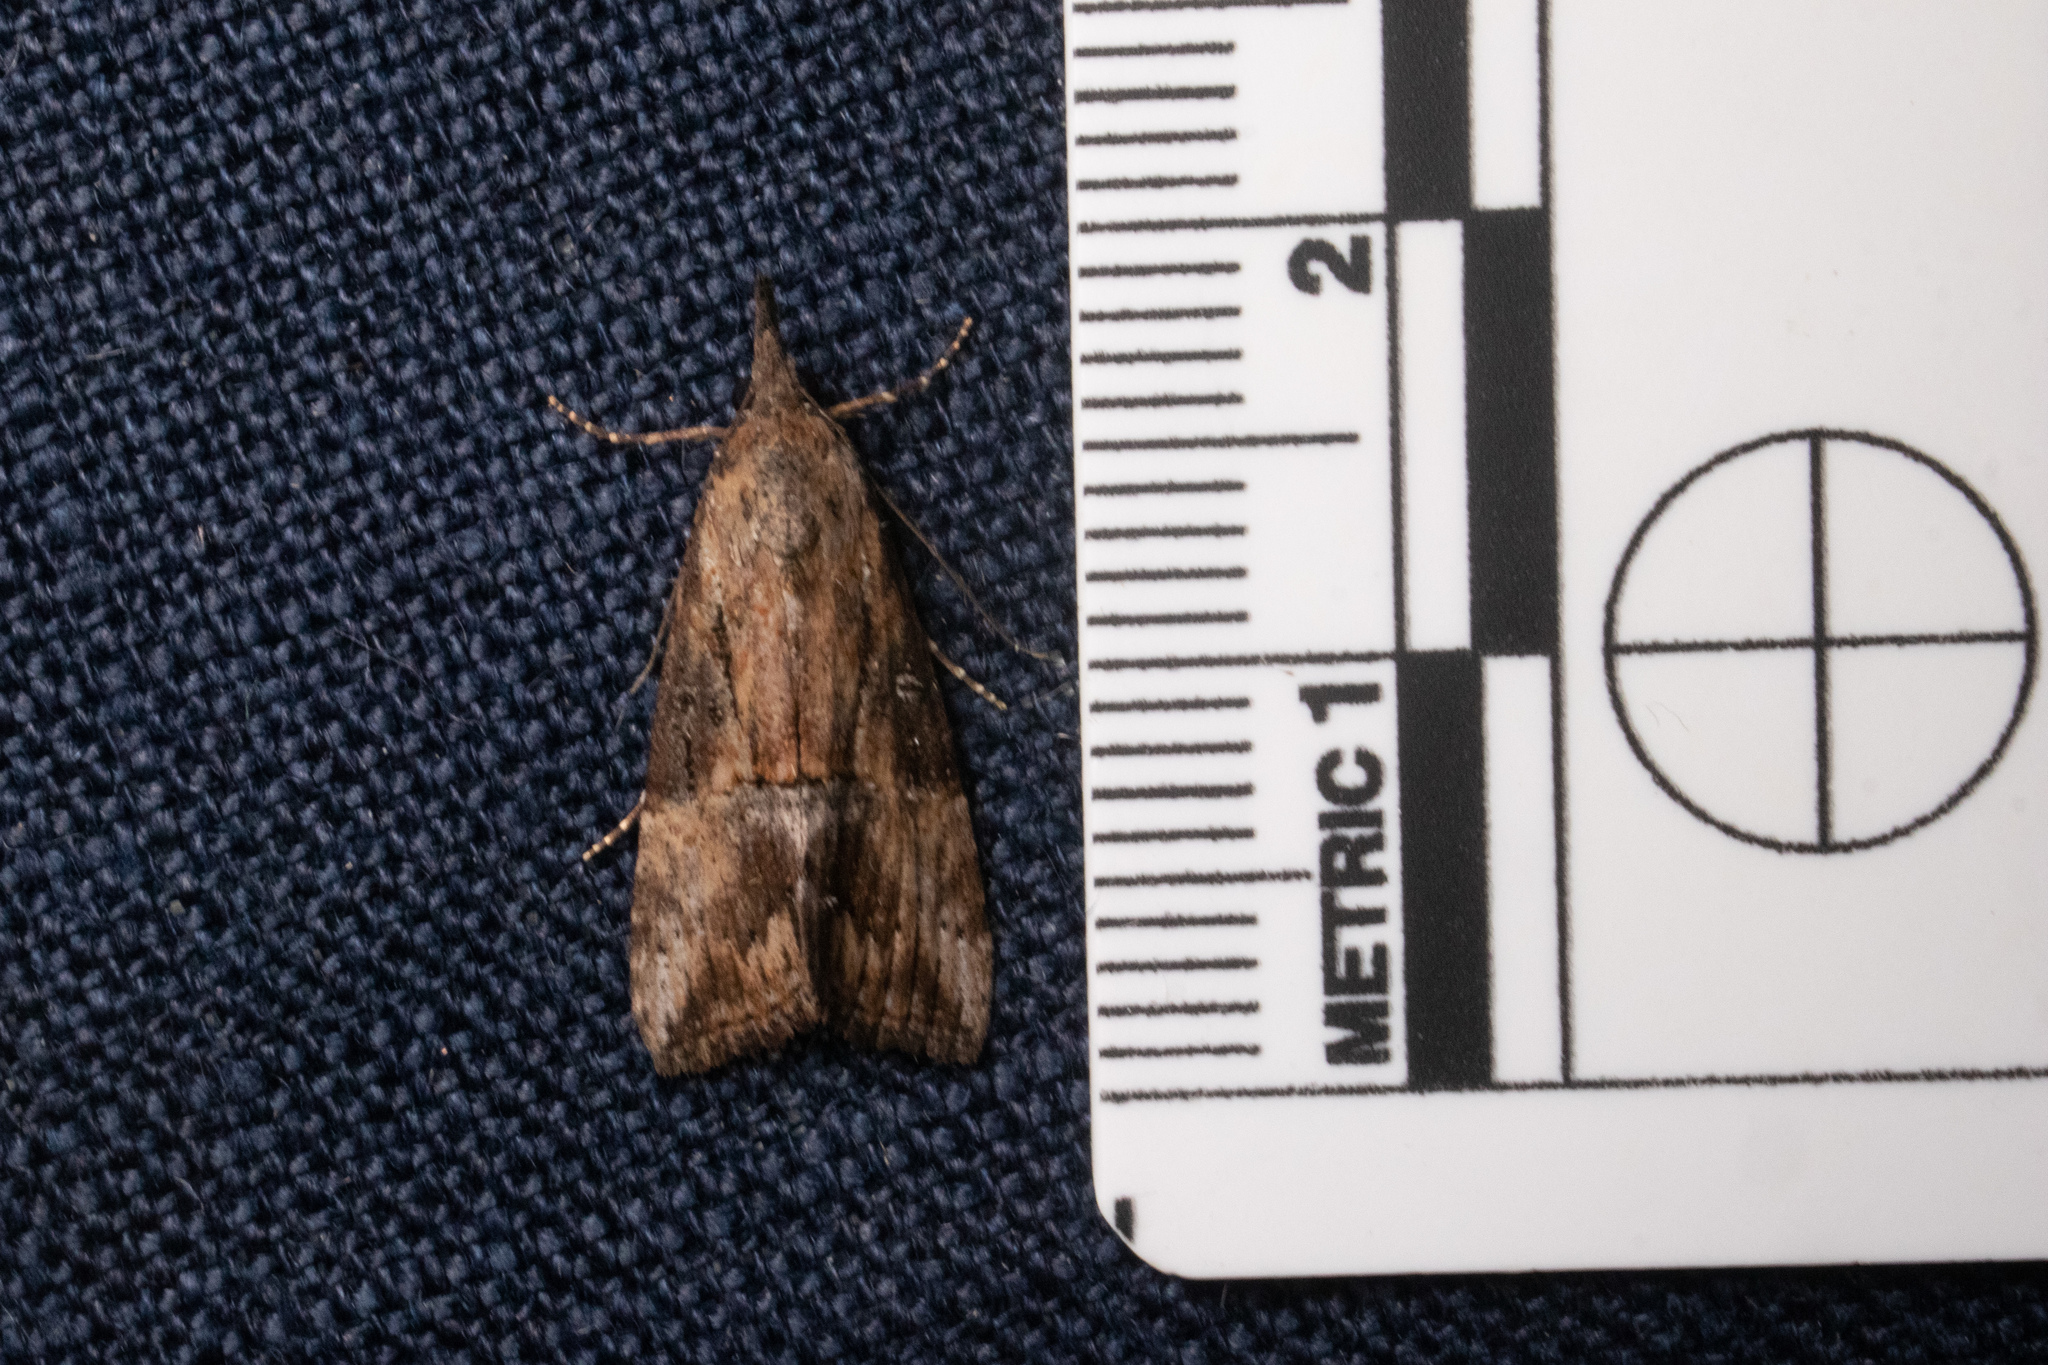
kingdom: Animalia
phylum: Arthropoda
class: Insecta
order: Lepidoptera
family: Erebidae
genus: Hypena
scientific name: Hypena scabra
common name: Green cloverworm
